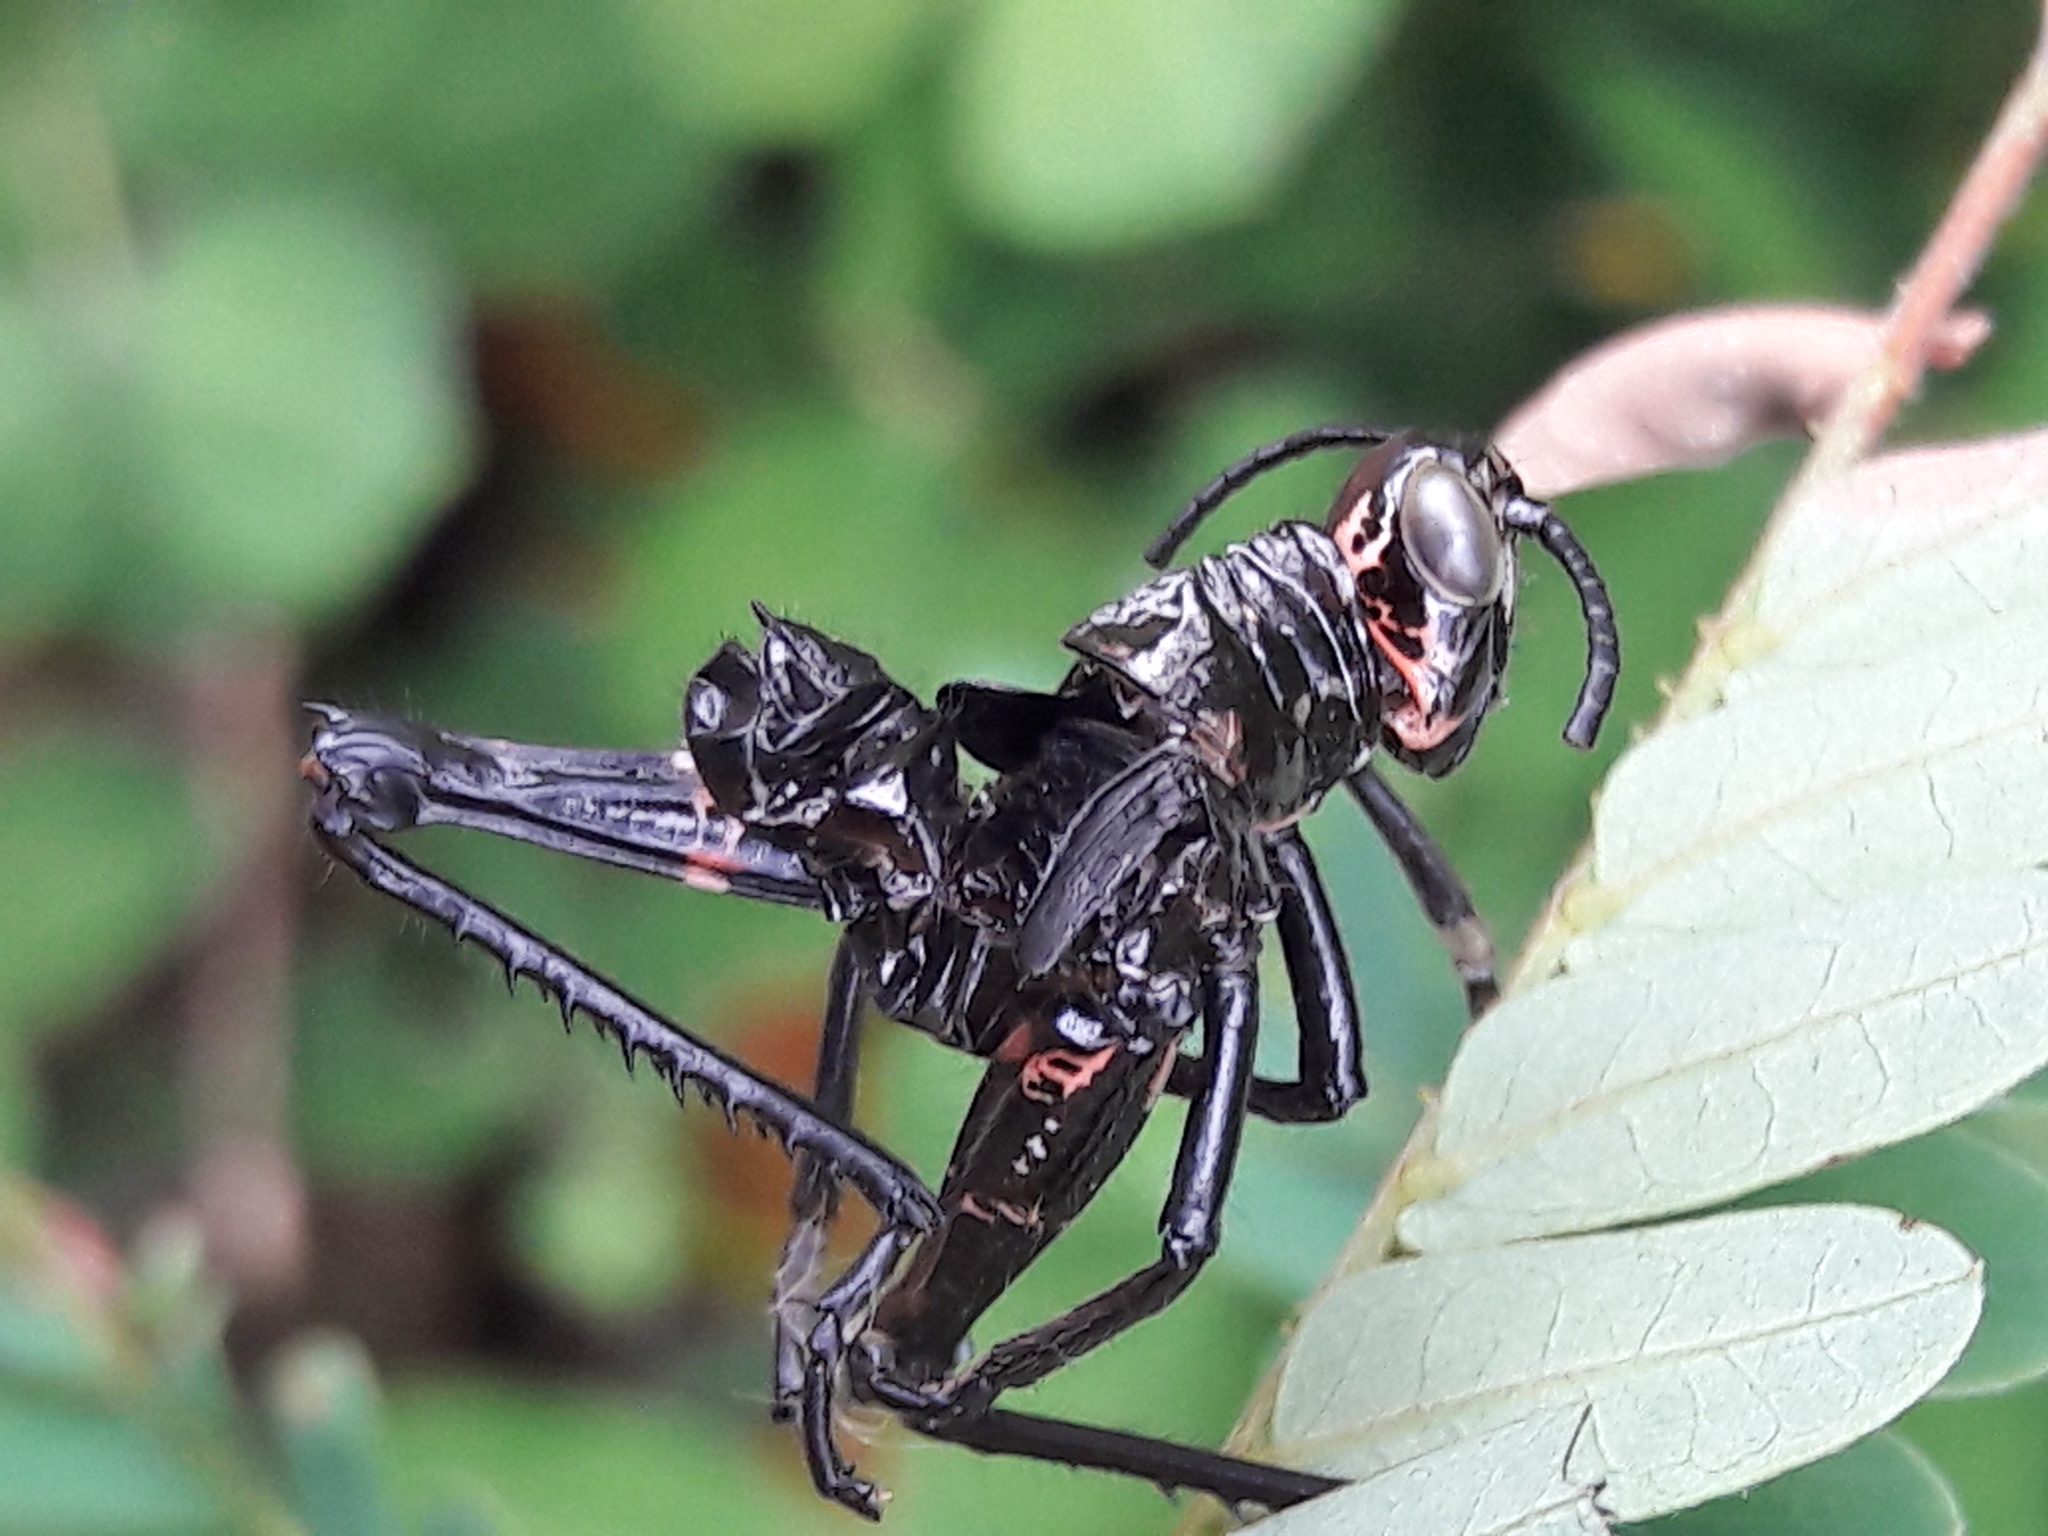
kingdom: Animalia
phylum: Arthropoda
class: Insecta
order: Orthoptera
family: Romaleidae
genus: Chromacris
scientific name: Chromacris speciosa
